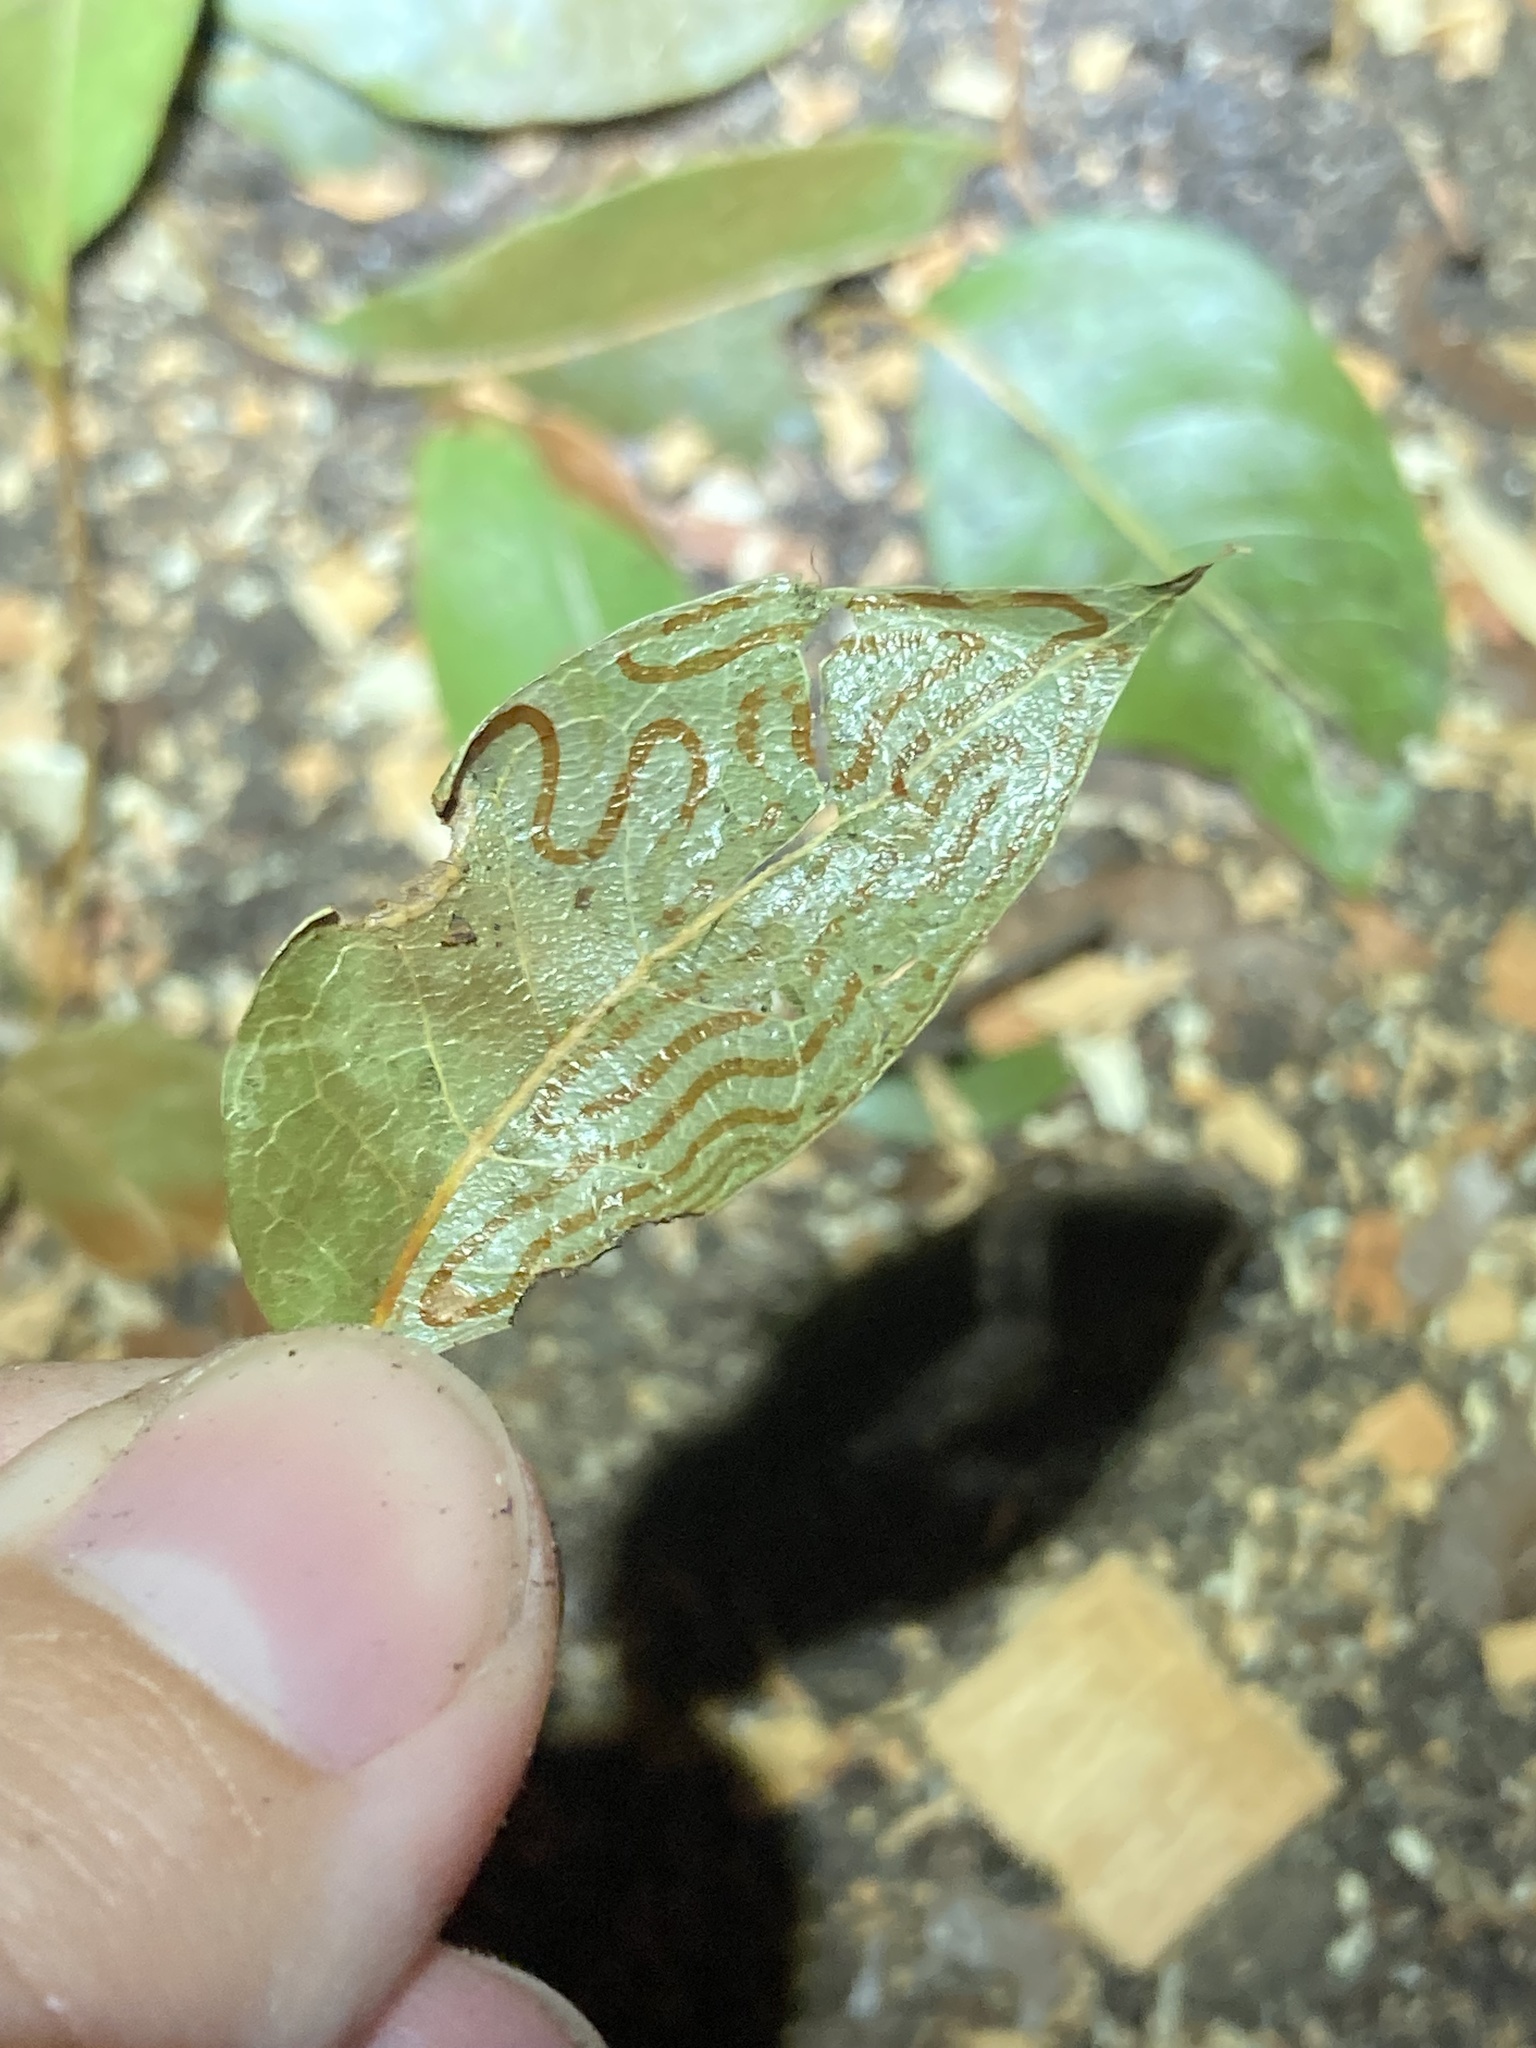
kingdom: Animalia
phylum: Arthropoda
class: Insecta
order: Lepidoptera
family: Gracillariidae
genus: Phyllocnistis
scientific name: Phyllocnistis meliacella
